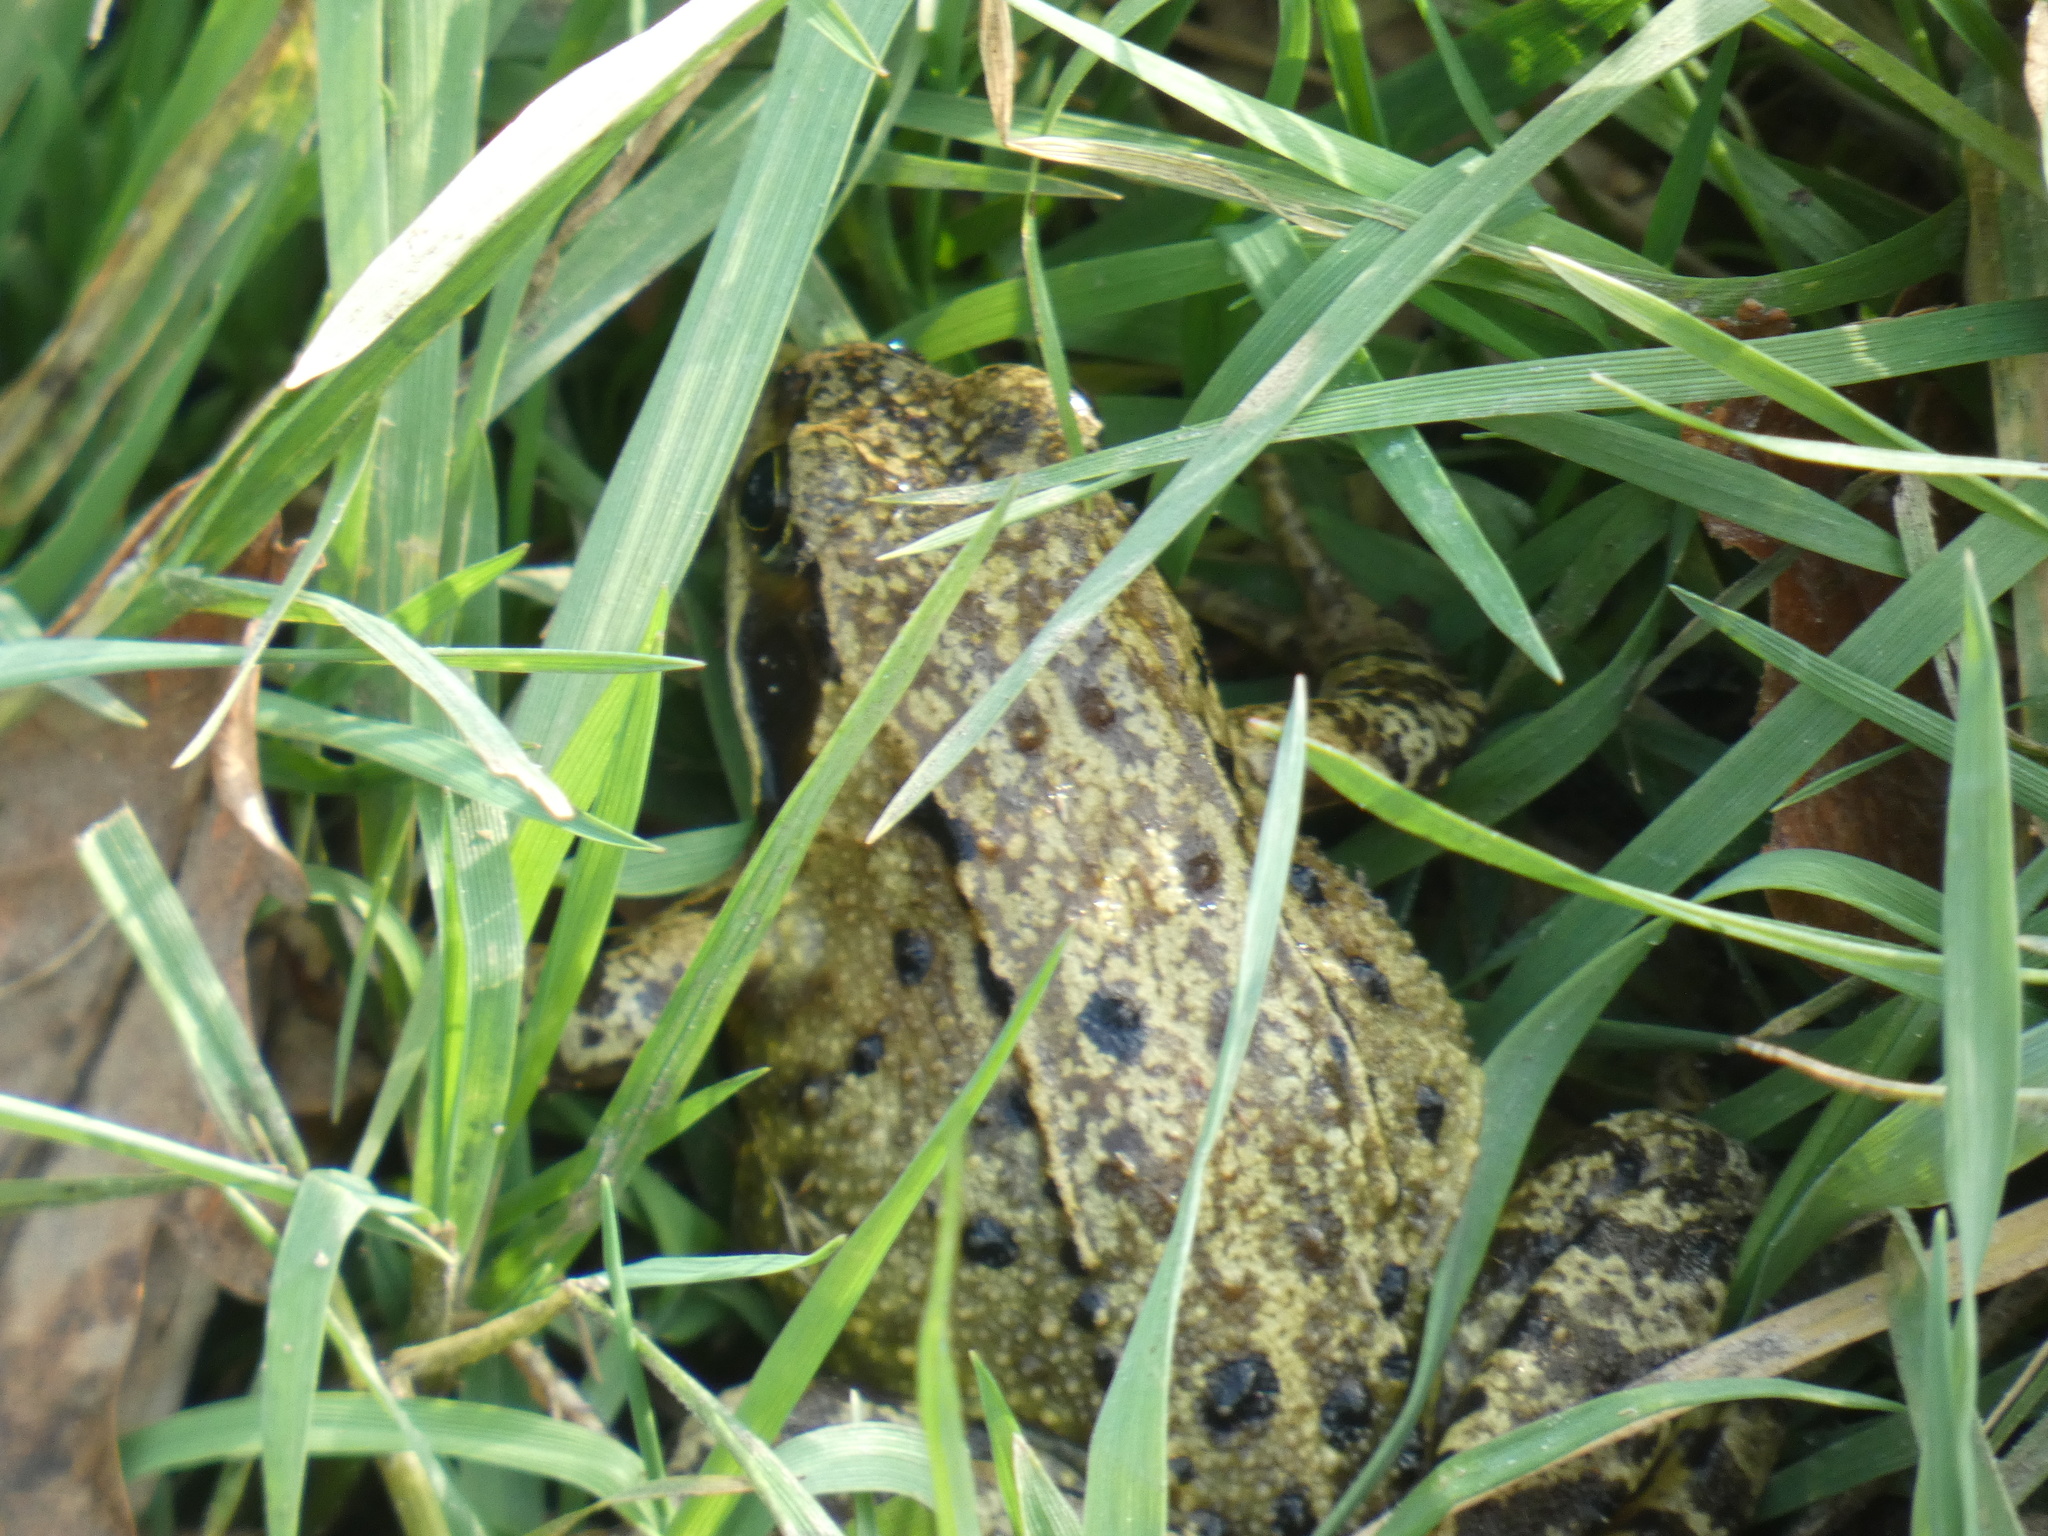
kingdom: Animalia
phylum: Chordata
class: Amphibia
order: Anura
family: Ranidae
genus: Rana
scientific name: Rana temporaria
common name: Common frog
